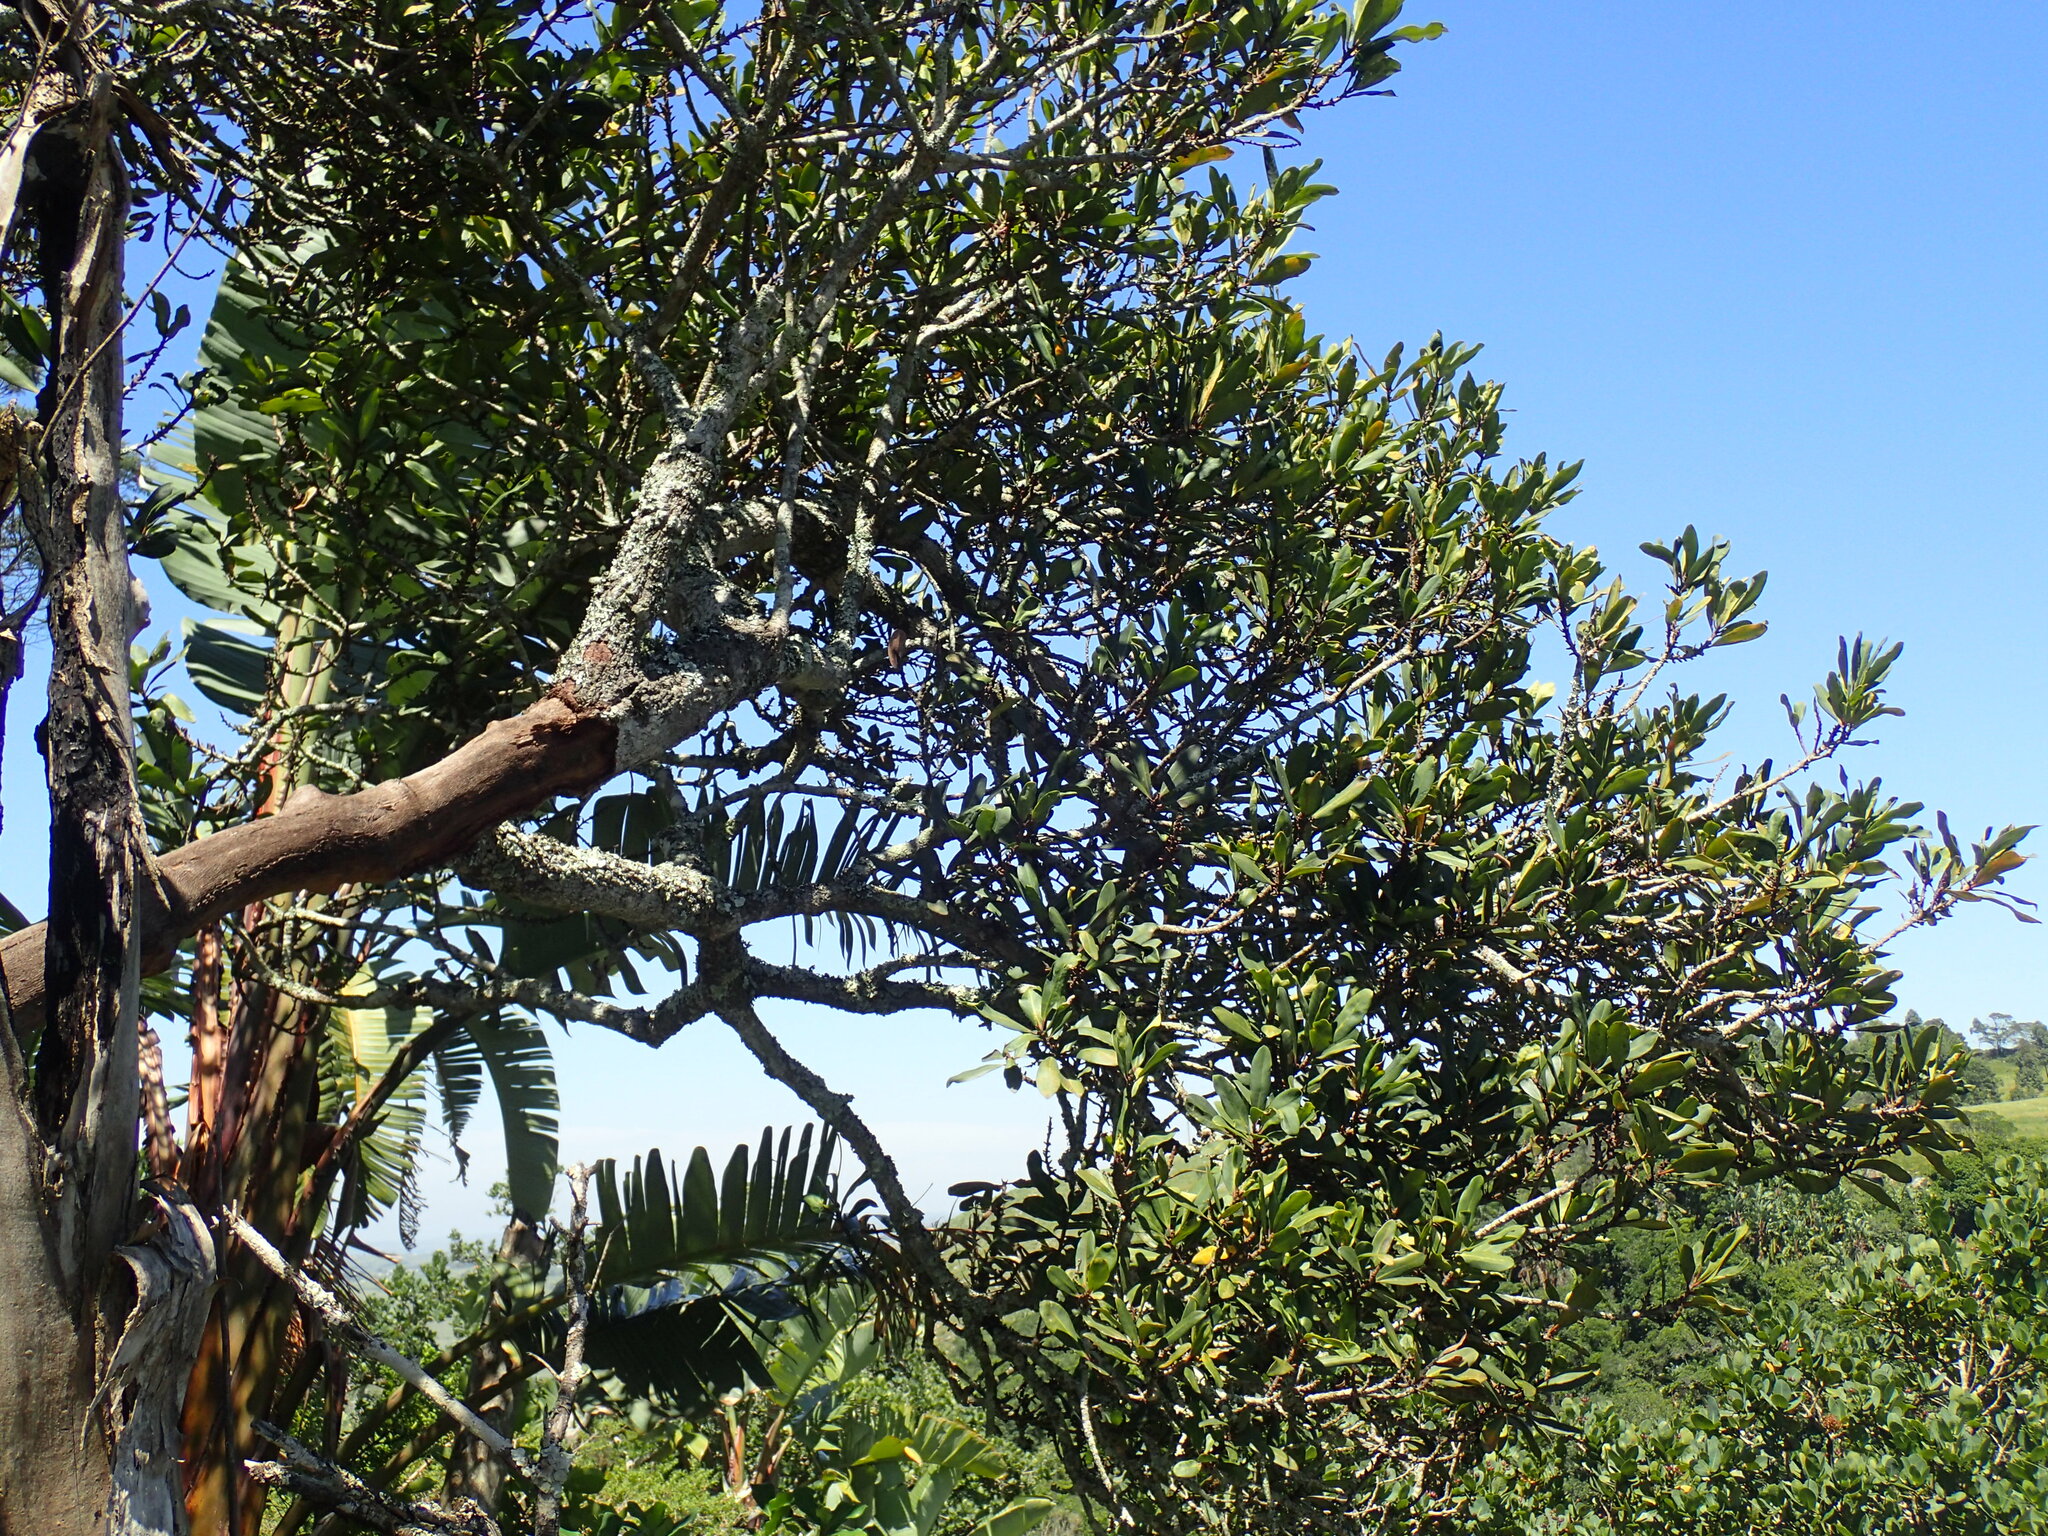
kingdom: Plantae
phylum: Tracheophyta
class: Magnoliopsida
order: Ericales
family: Primulaceae
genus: Myrsine
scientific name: Myrsine melanophloeos
